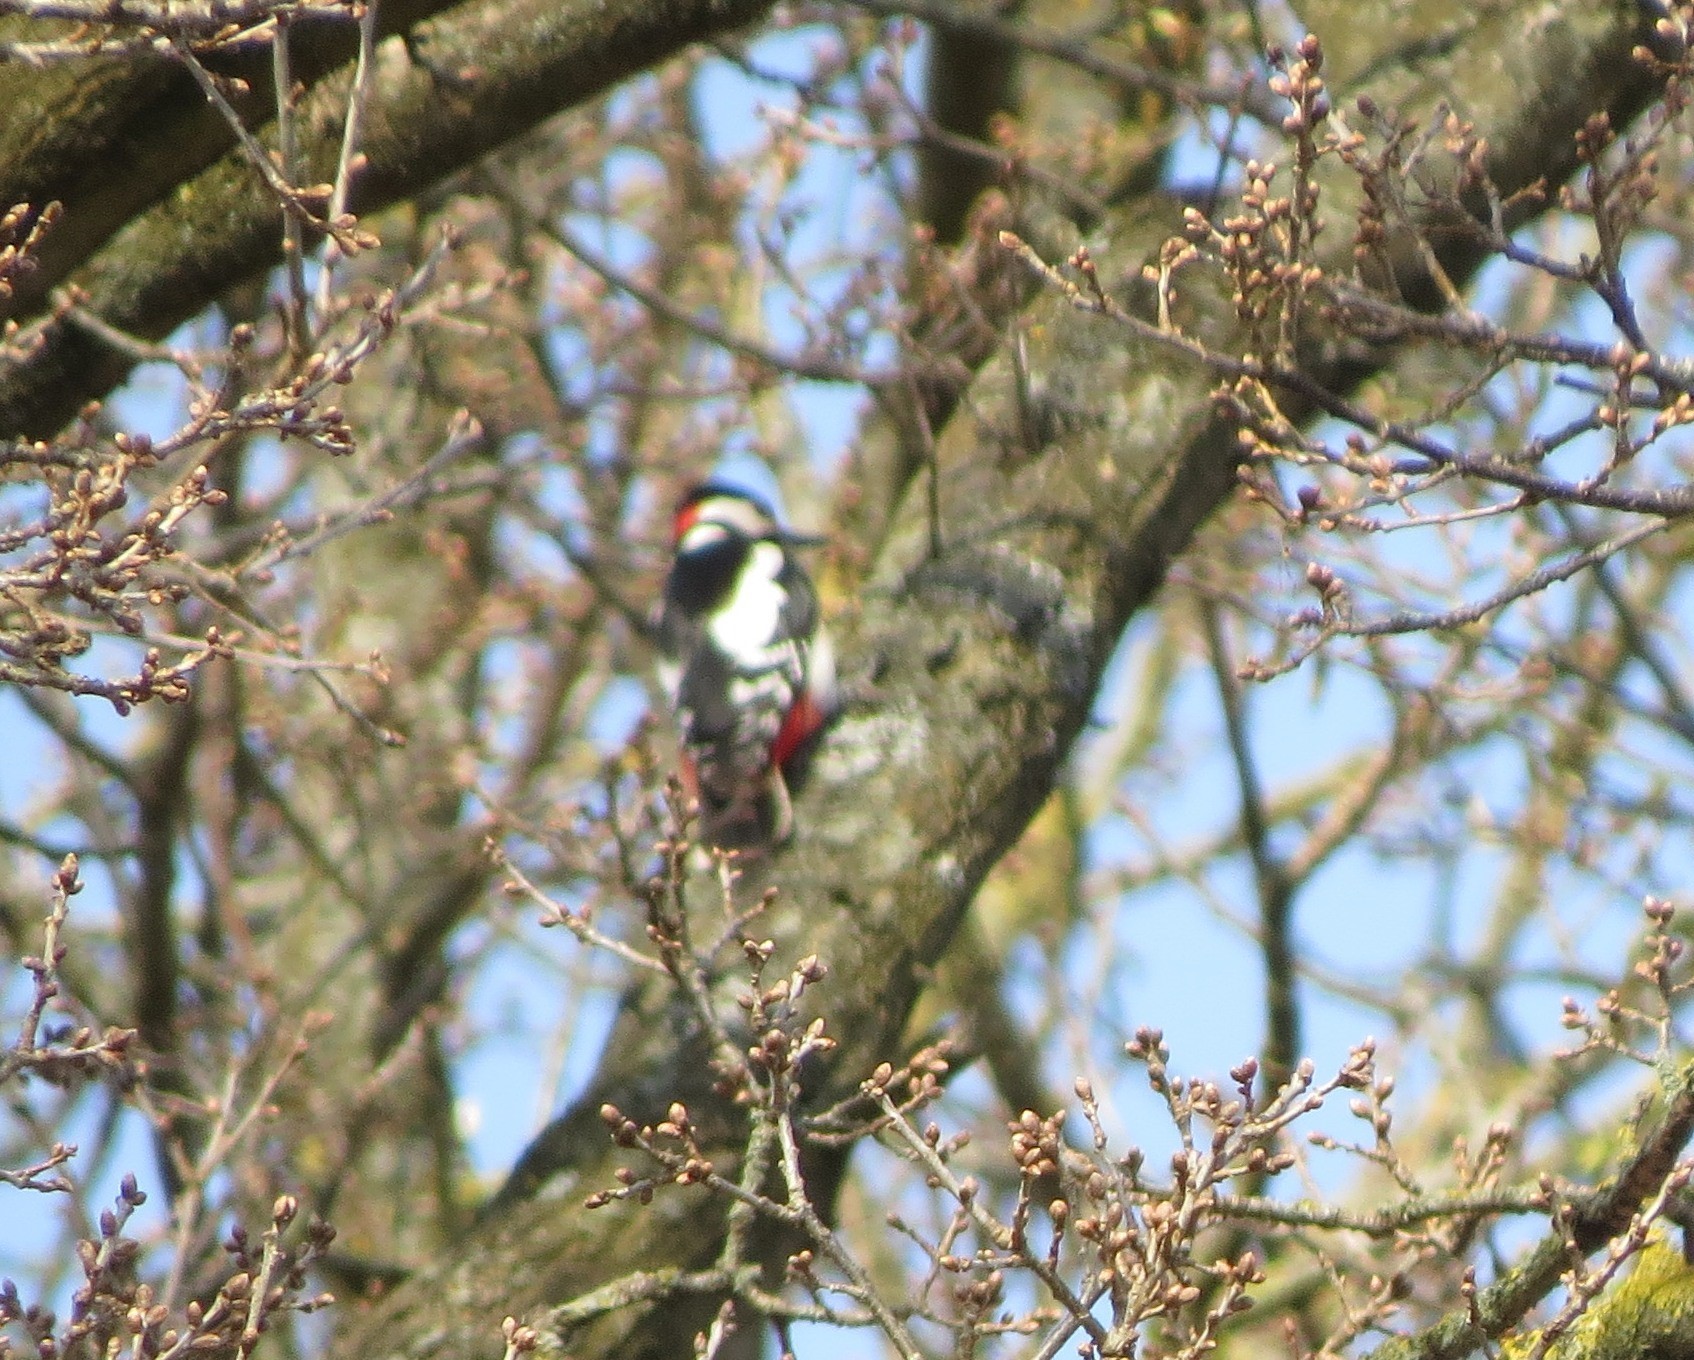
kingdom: Animalia
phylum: Chordata
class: Aves
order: Piciformes
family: Picidae
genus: Dendrocopos
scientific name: Dendrocopos major
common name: Great spotted woodpecker
